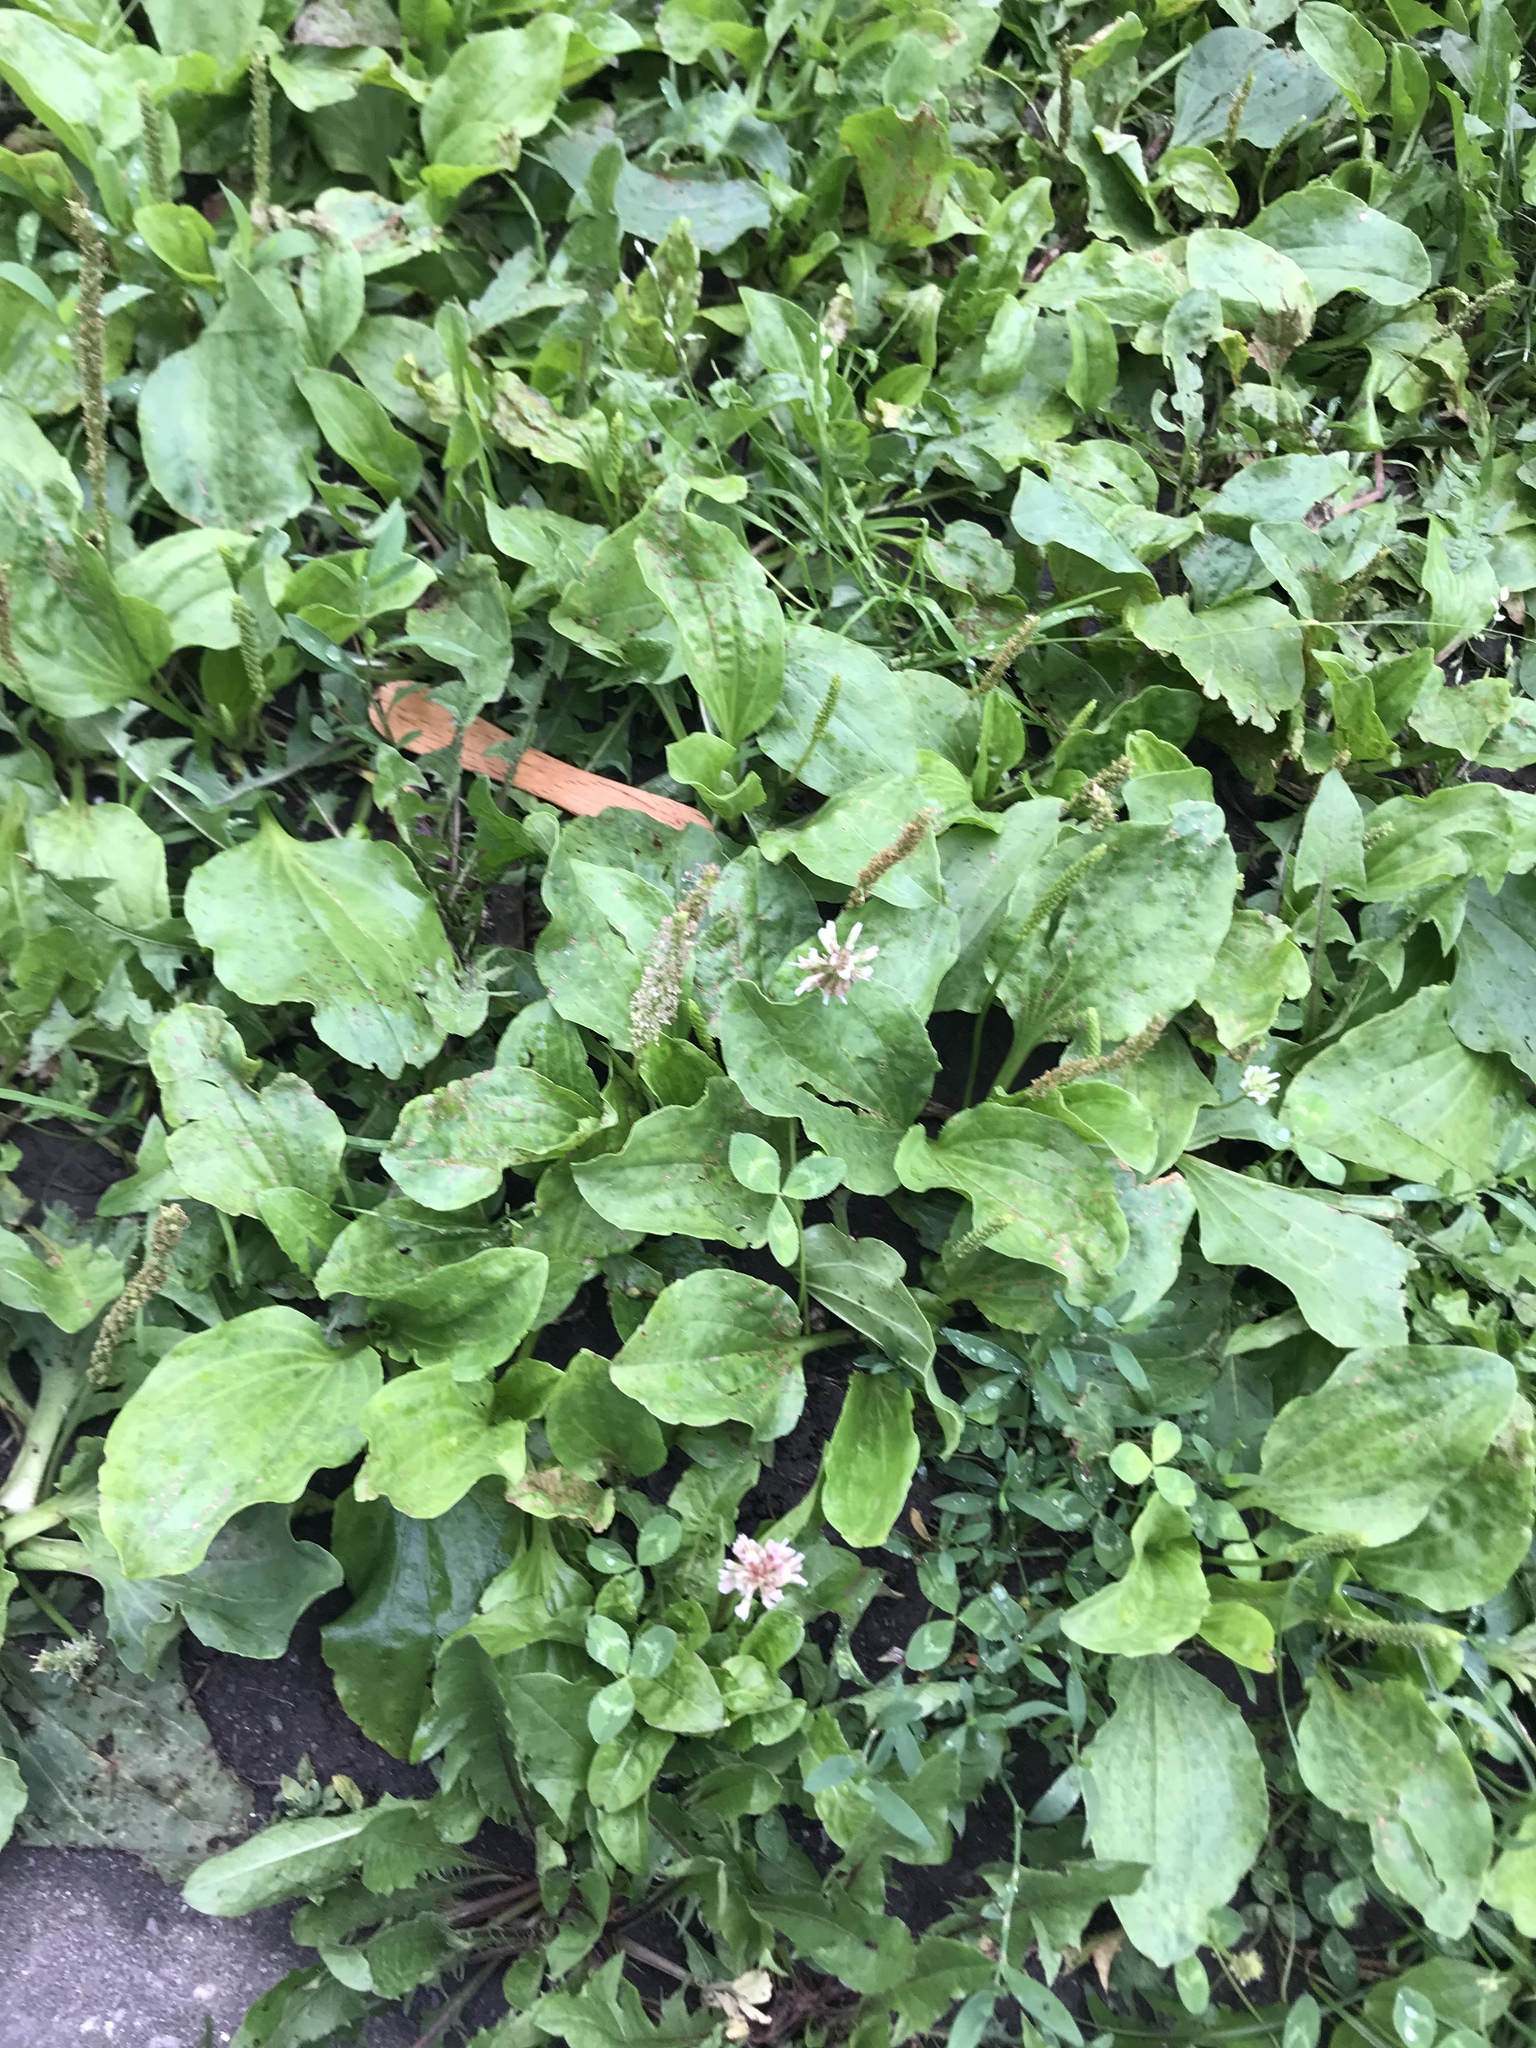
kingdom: Plantae
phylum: Tracheophyta
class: Magnoliopsida
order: Lamiales
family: Plantaginaceae
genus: Plantago
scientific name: Plantago major
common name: Common plantain
